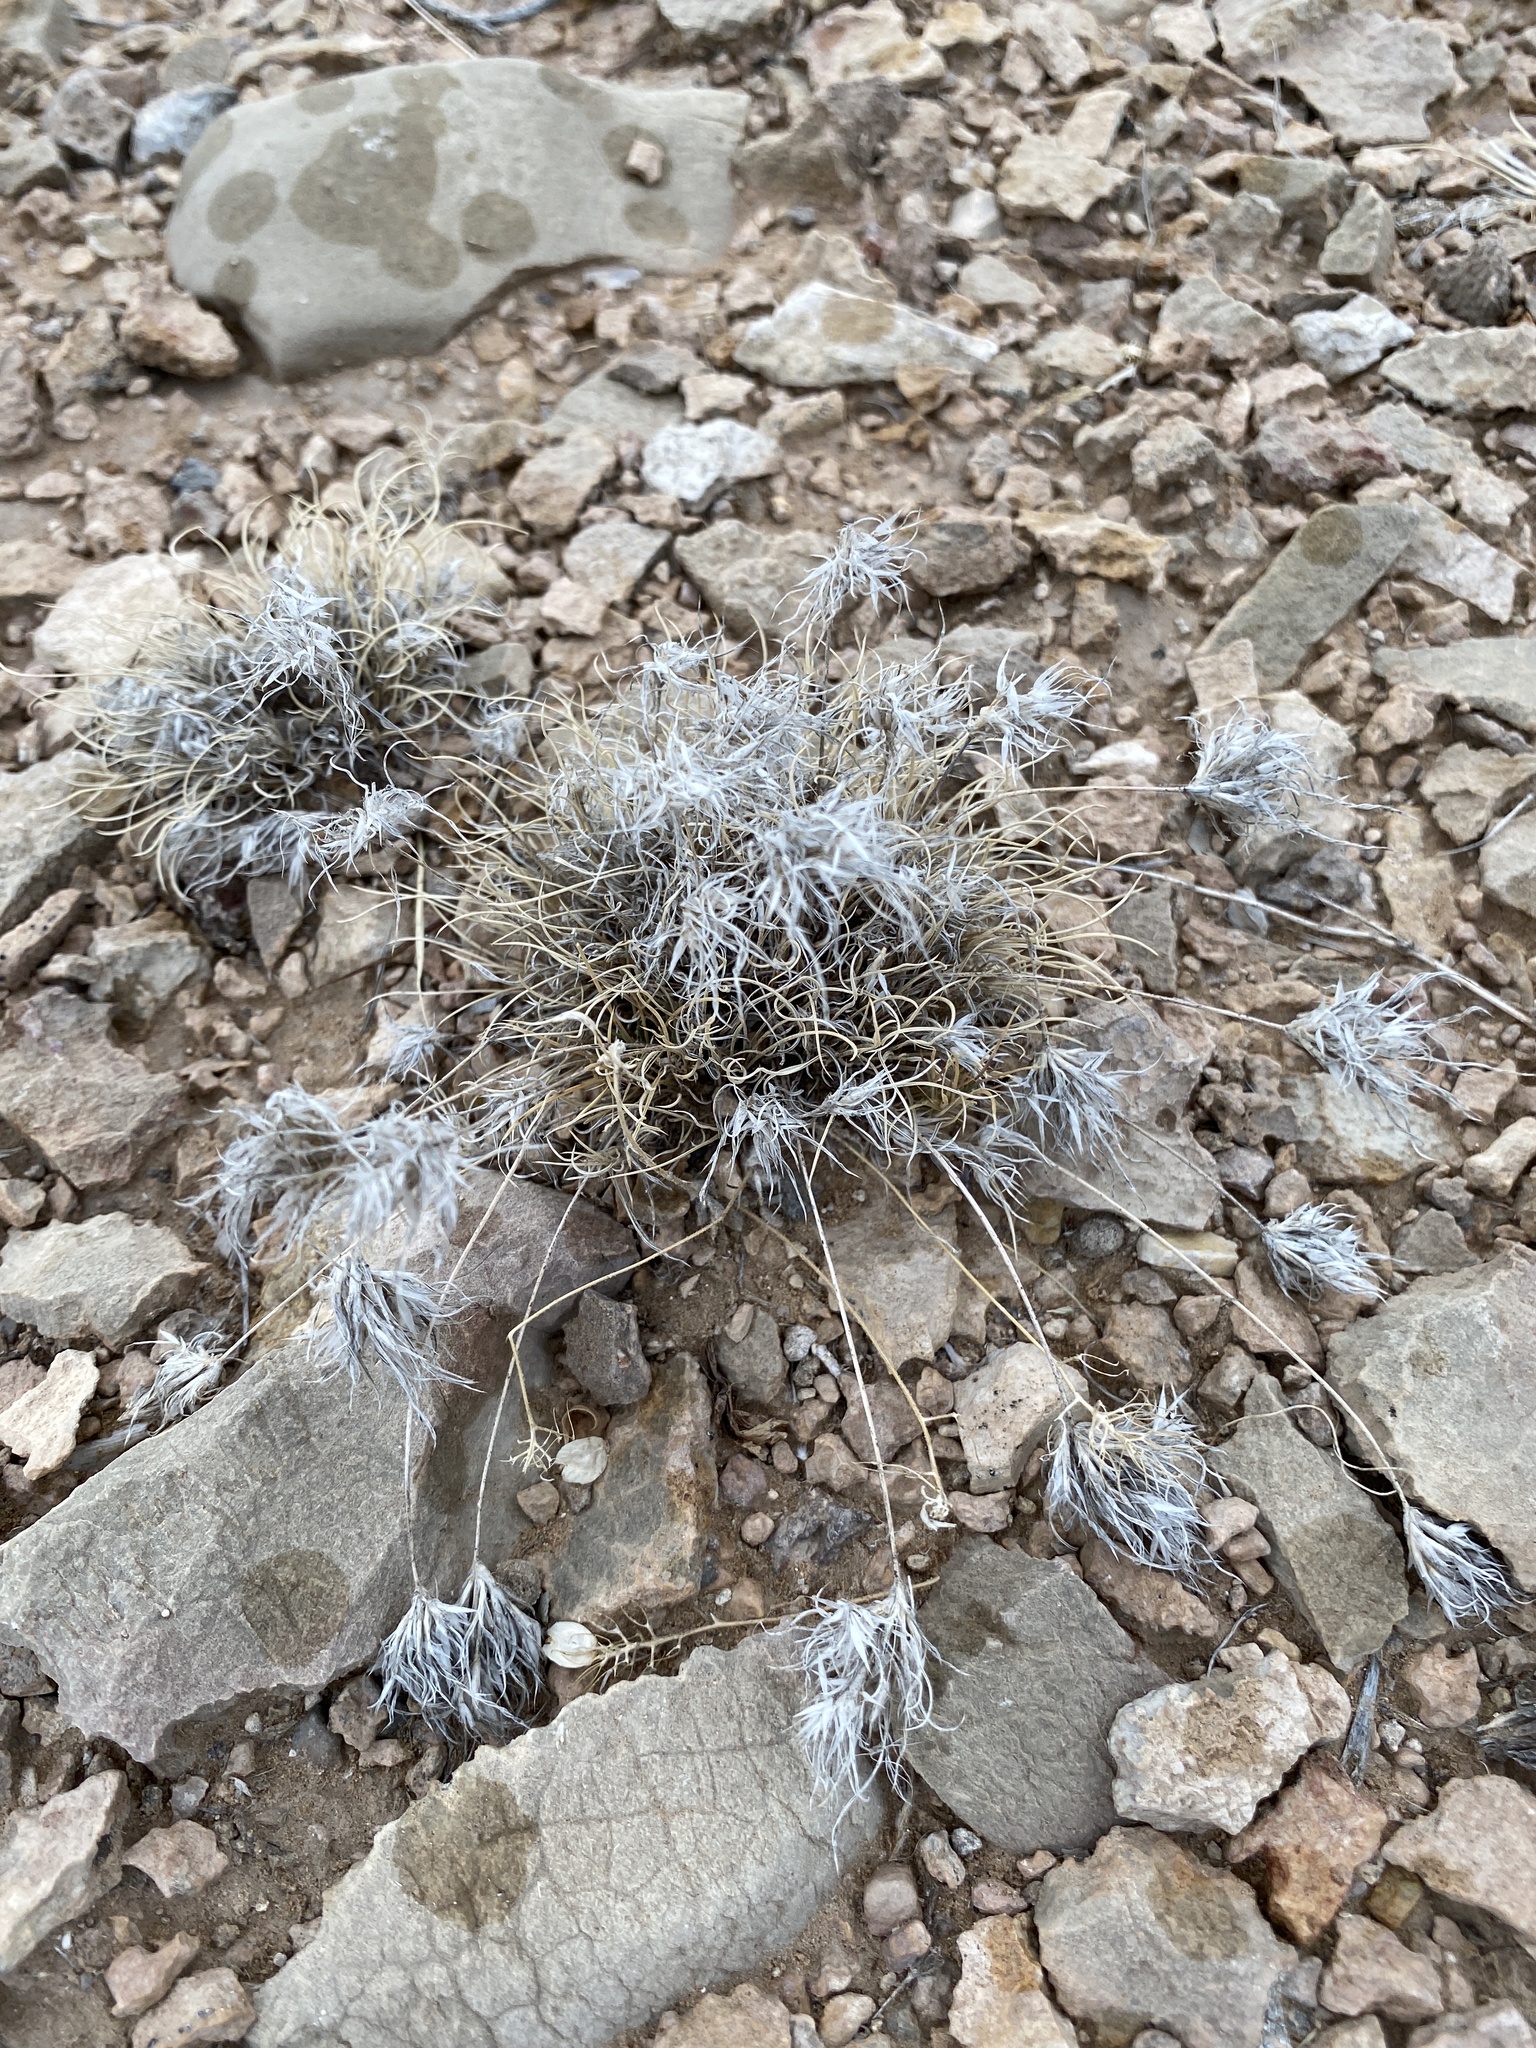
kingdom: Plantae
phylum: Tracheophyta
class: Liliopsida
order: Poales
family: Poaceae
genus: Dasyochloa
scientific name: Dasyochloa pulchella
